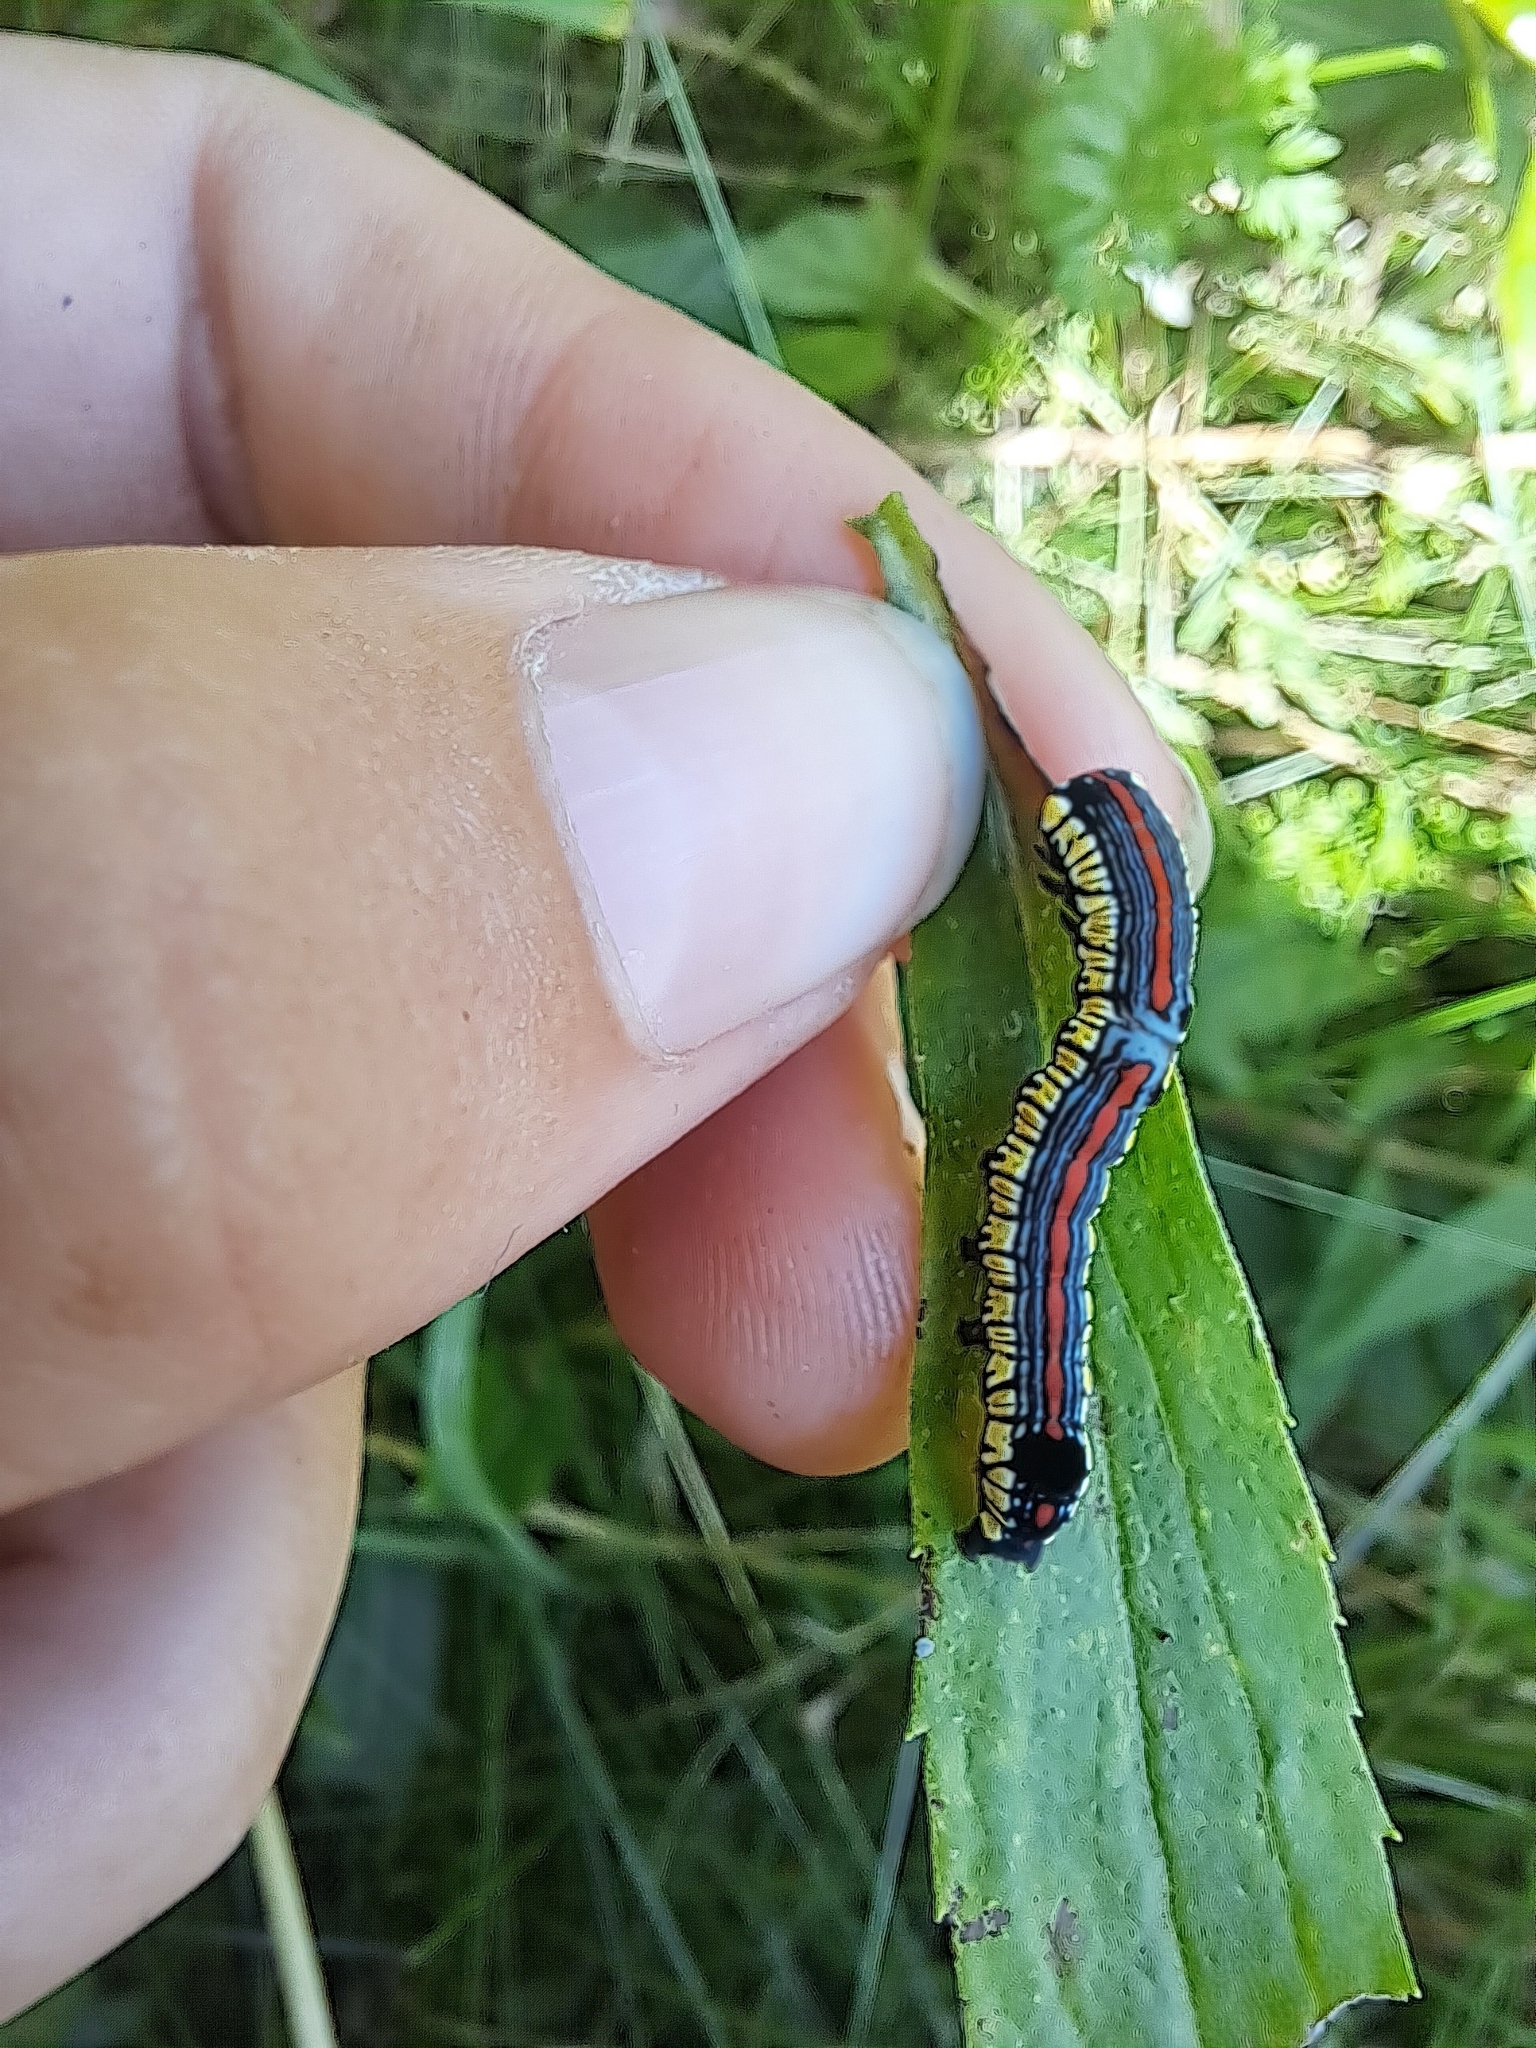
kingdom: Animalia
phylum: Arthropoda
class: Insecta
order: Lepidoptera
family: Noctuidae
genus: Cucullia
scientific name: Cucullia convexipennis
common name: Brown-hooded owlet
